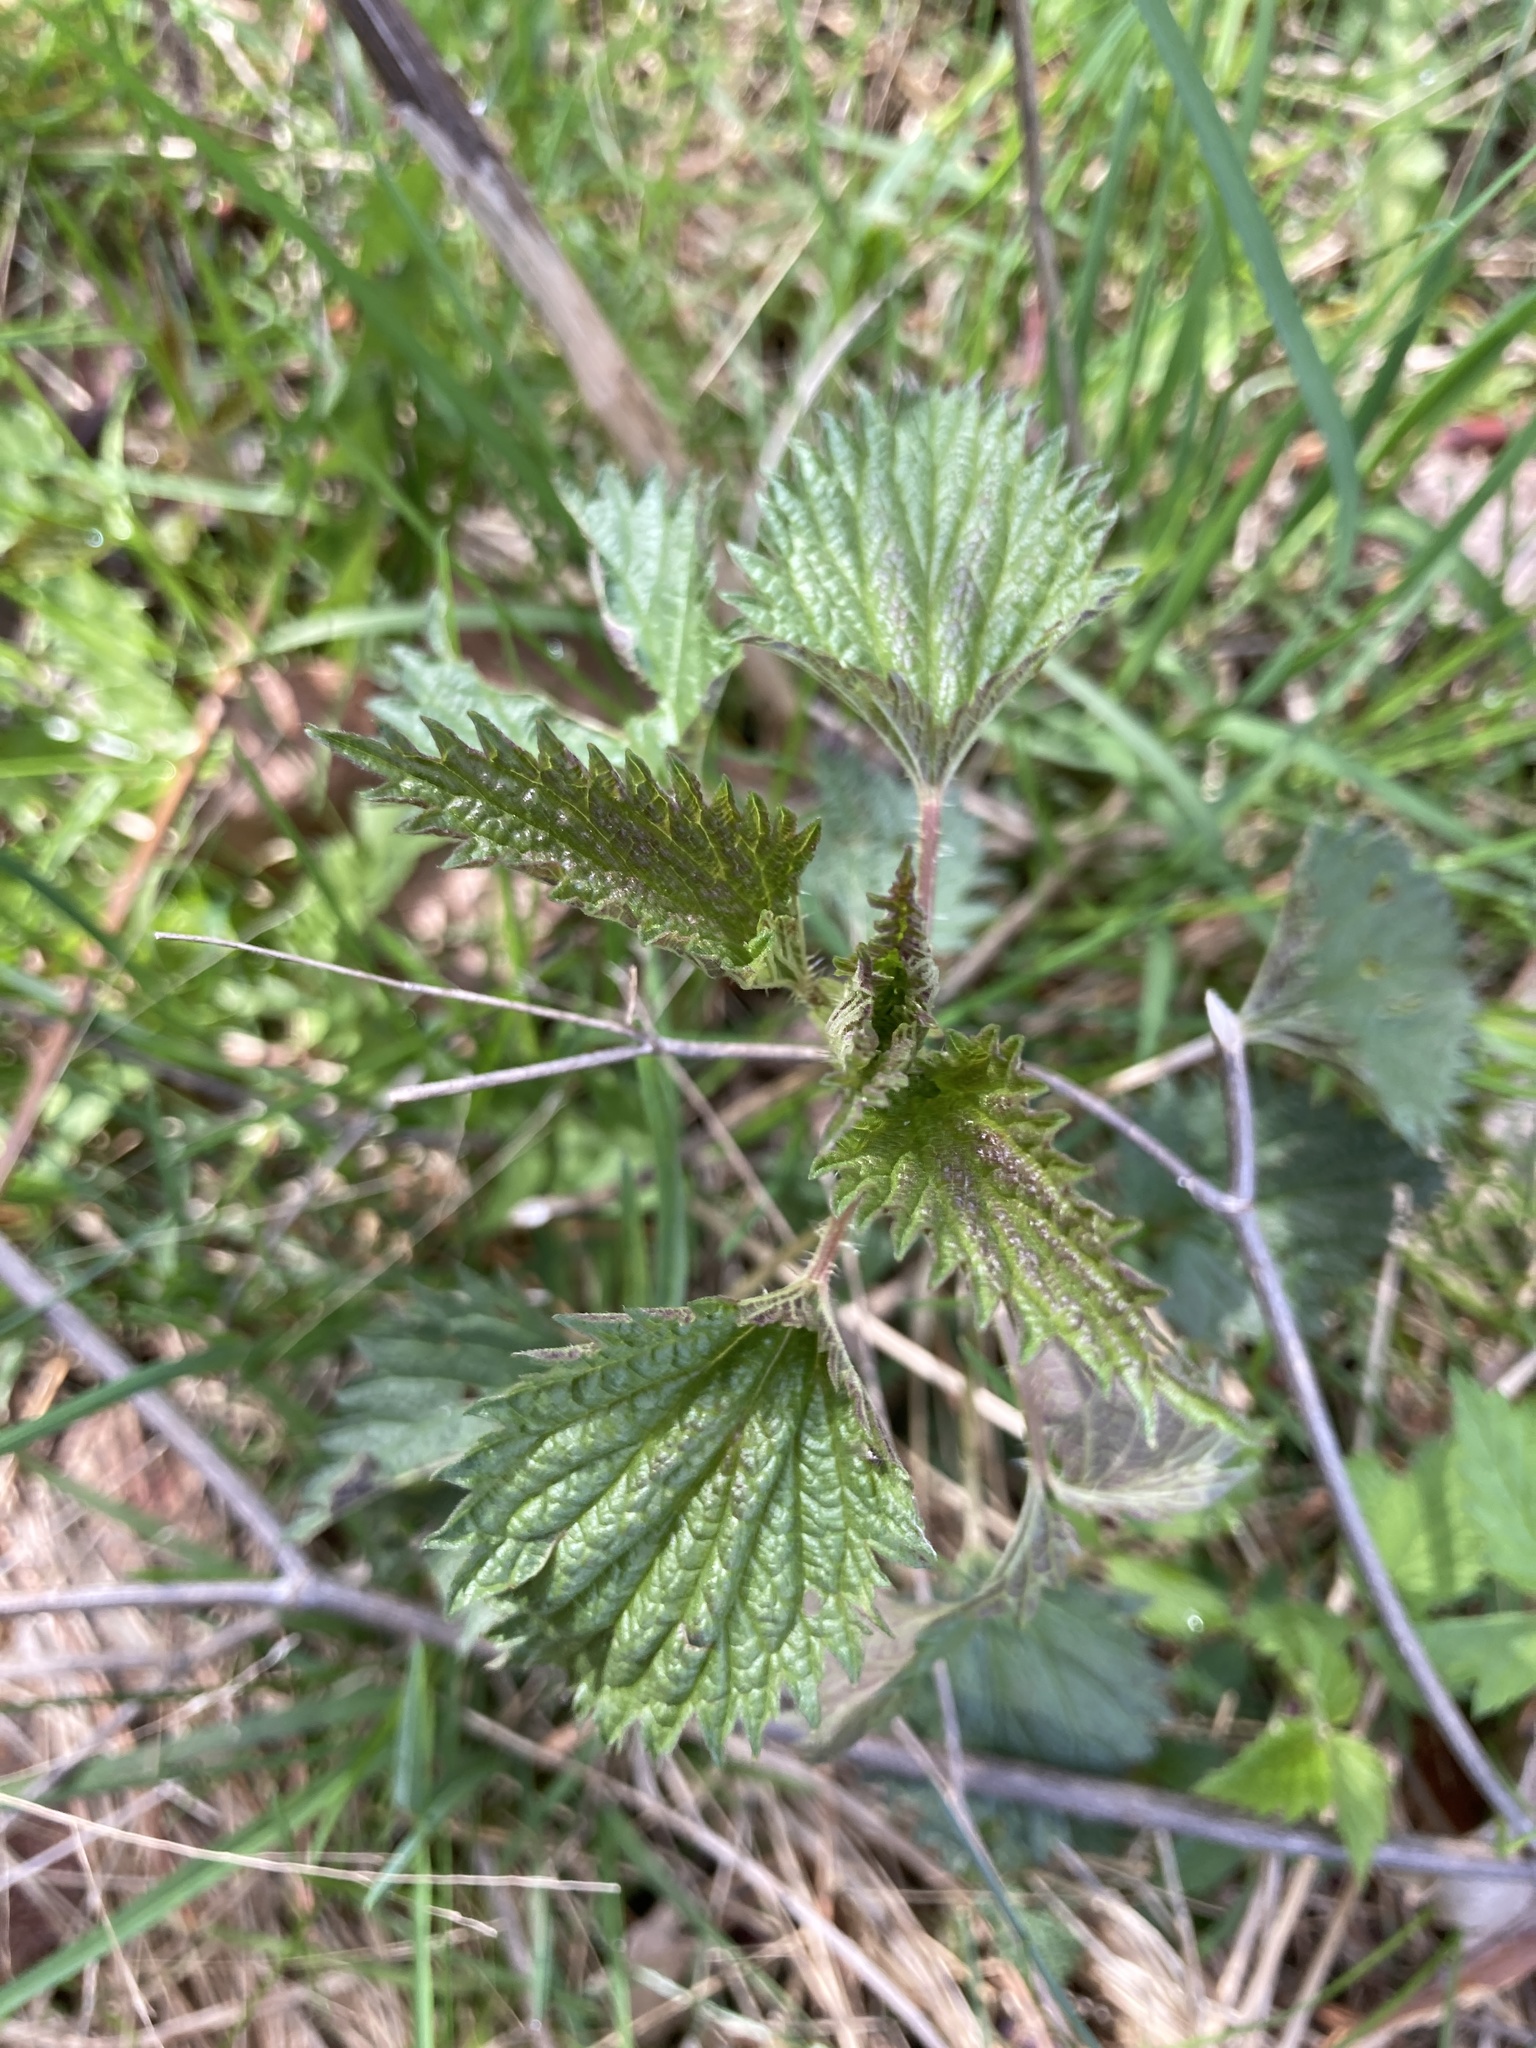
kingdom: Plantae
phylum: Tracheophyta
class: Magnoliopsida
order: Rosales
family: Urticaceae
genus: Urtica
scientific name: Urtica dioica
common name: Common nettle
